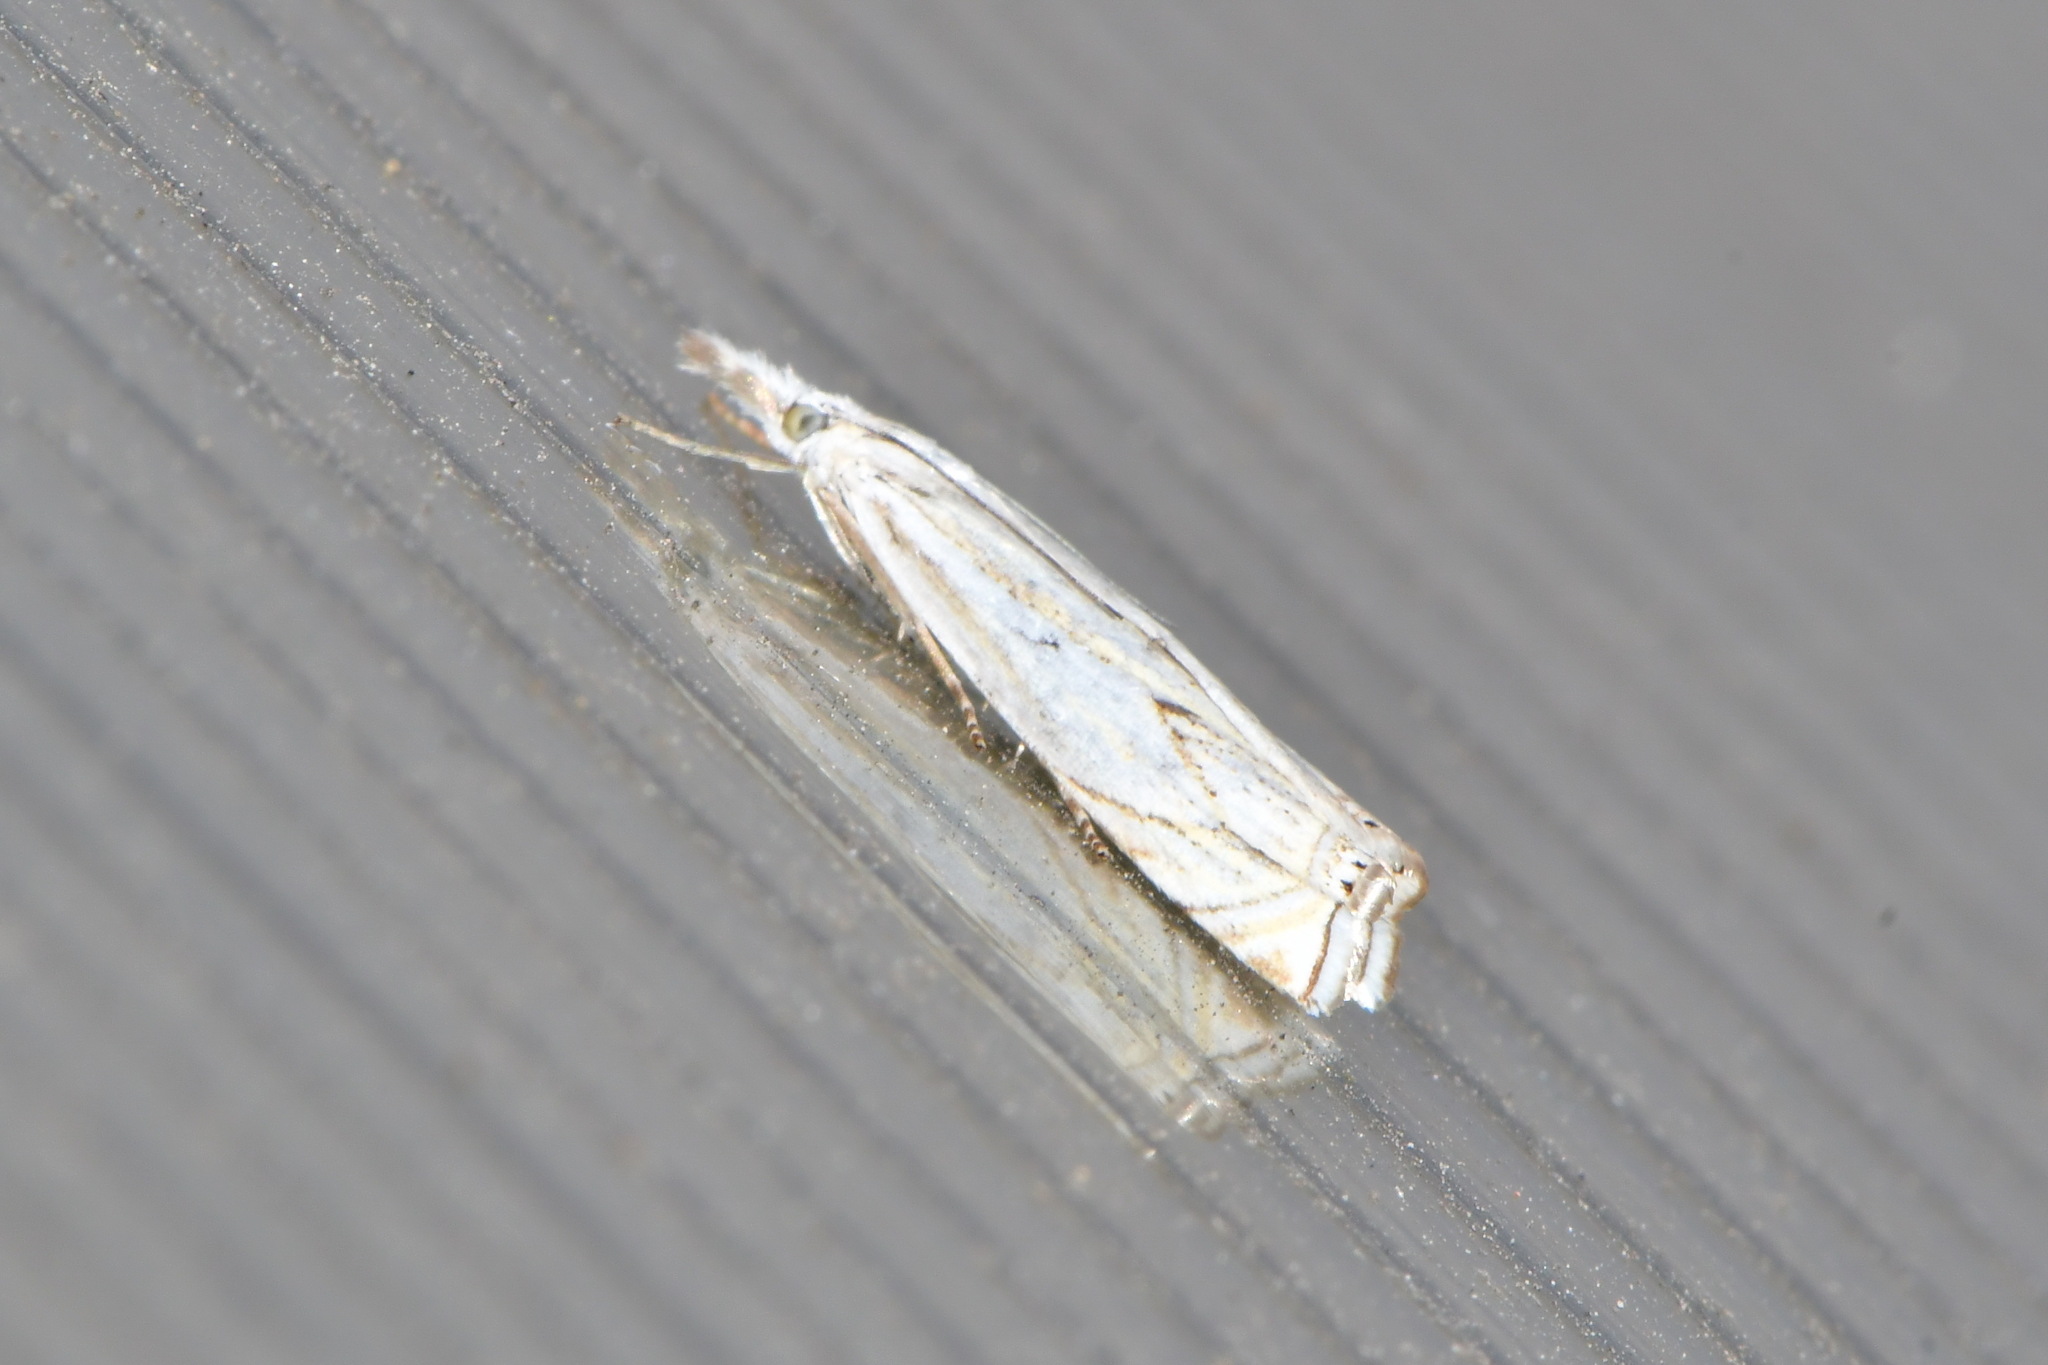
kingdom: Animalia
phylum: Arthropoda
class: Insecta
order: Lepidoptera
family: Crambidae
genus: Crambus
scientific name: Crambus nemorella
